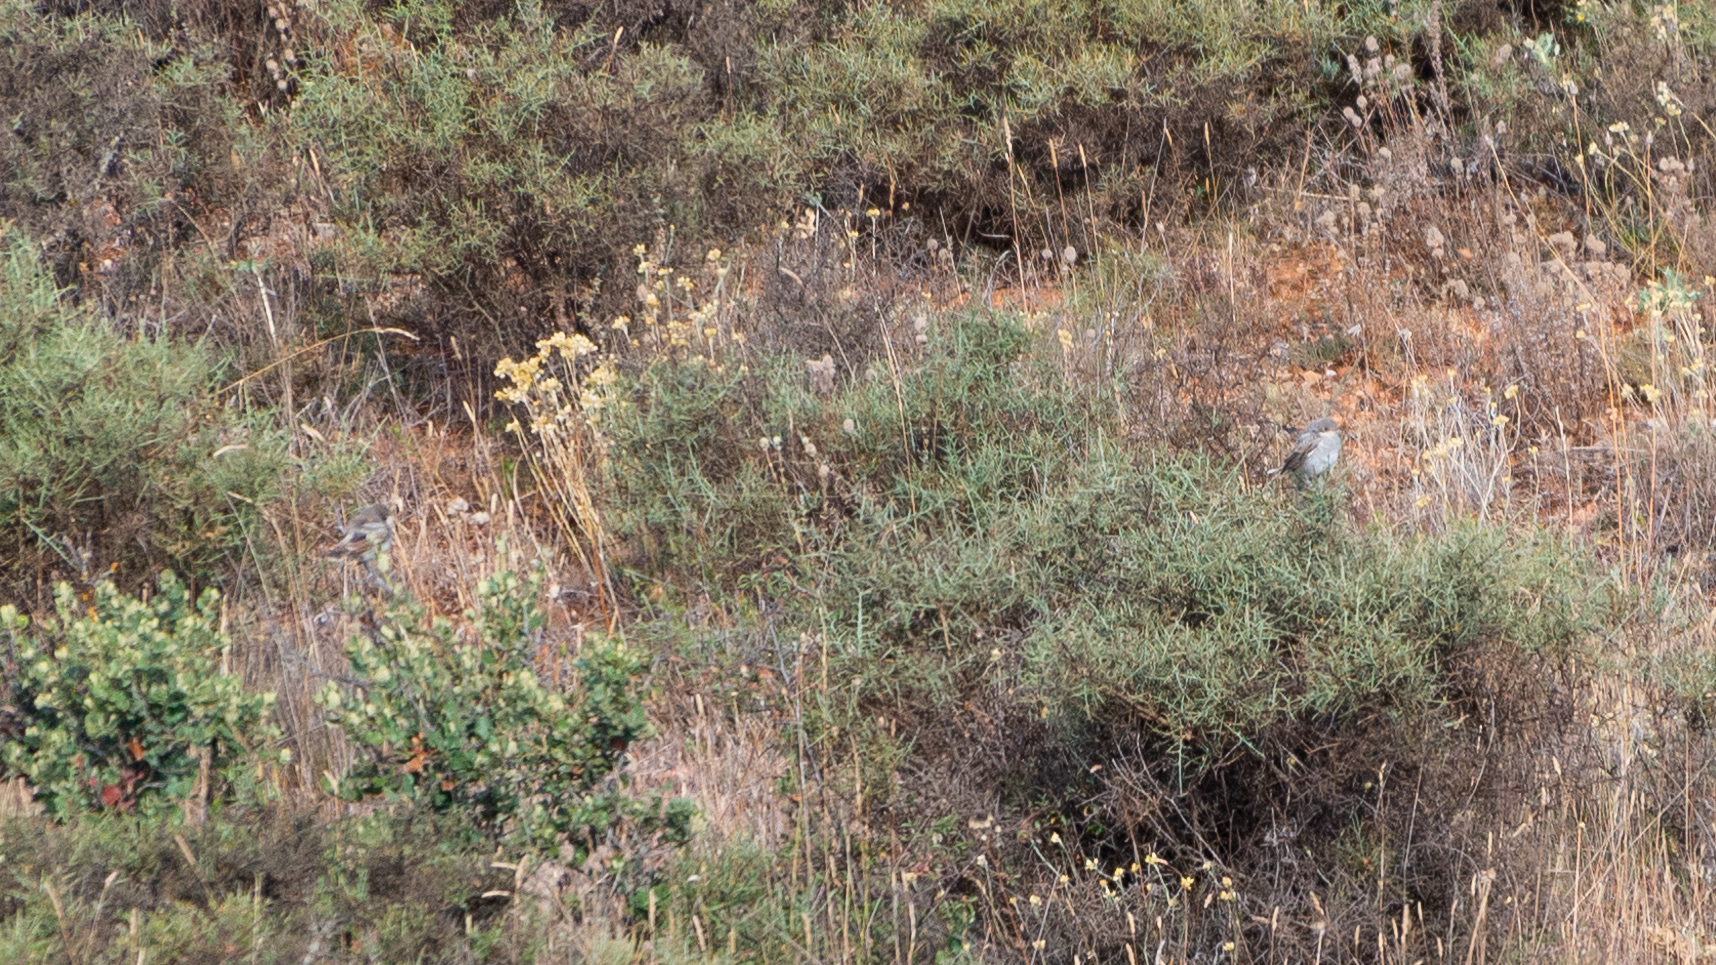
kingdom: Animalia
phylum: Chordata
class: Aves
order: Passeriformes
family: Laniidae
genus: Lanius
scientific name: Lanius senator
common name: Woodchat shrike
